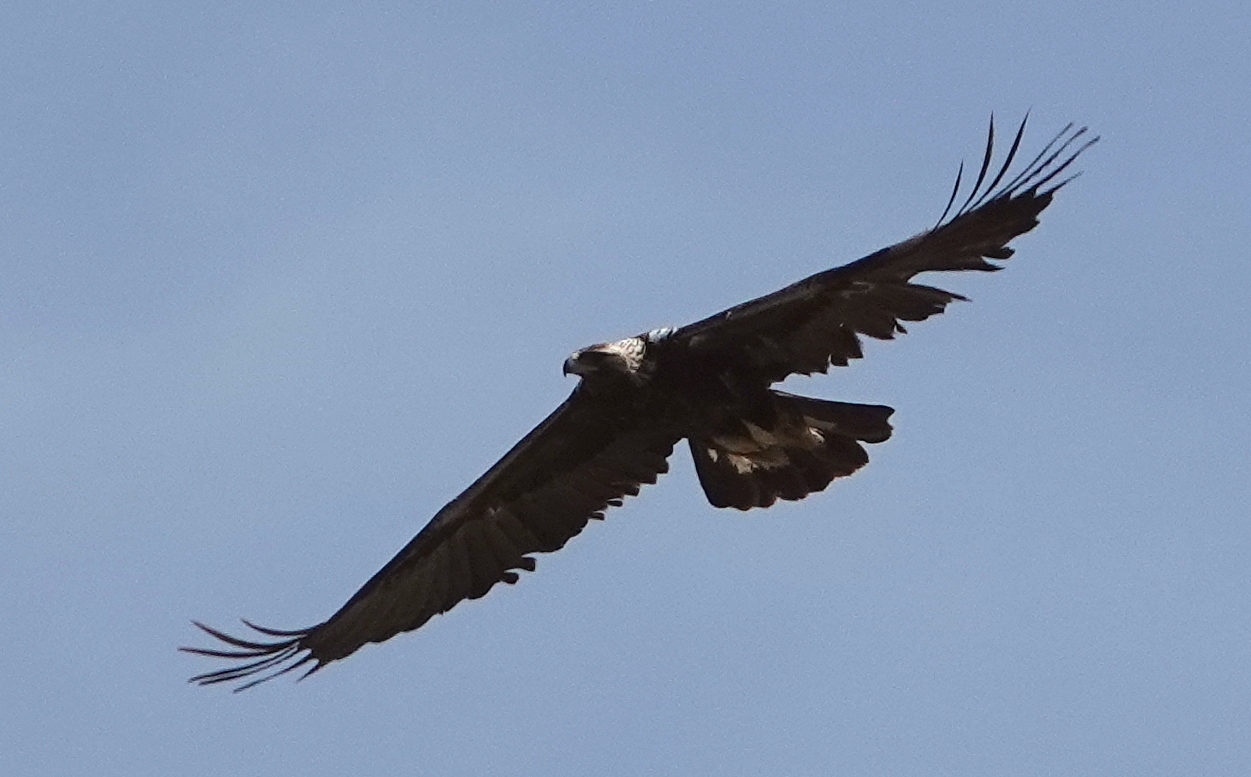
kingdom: Animalia
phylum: Chordata
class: Aves
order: Accipitriformes
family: Accipitridae
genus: Aquila
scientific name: Aquila chrysaetos
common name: Golden eagle
